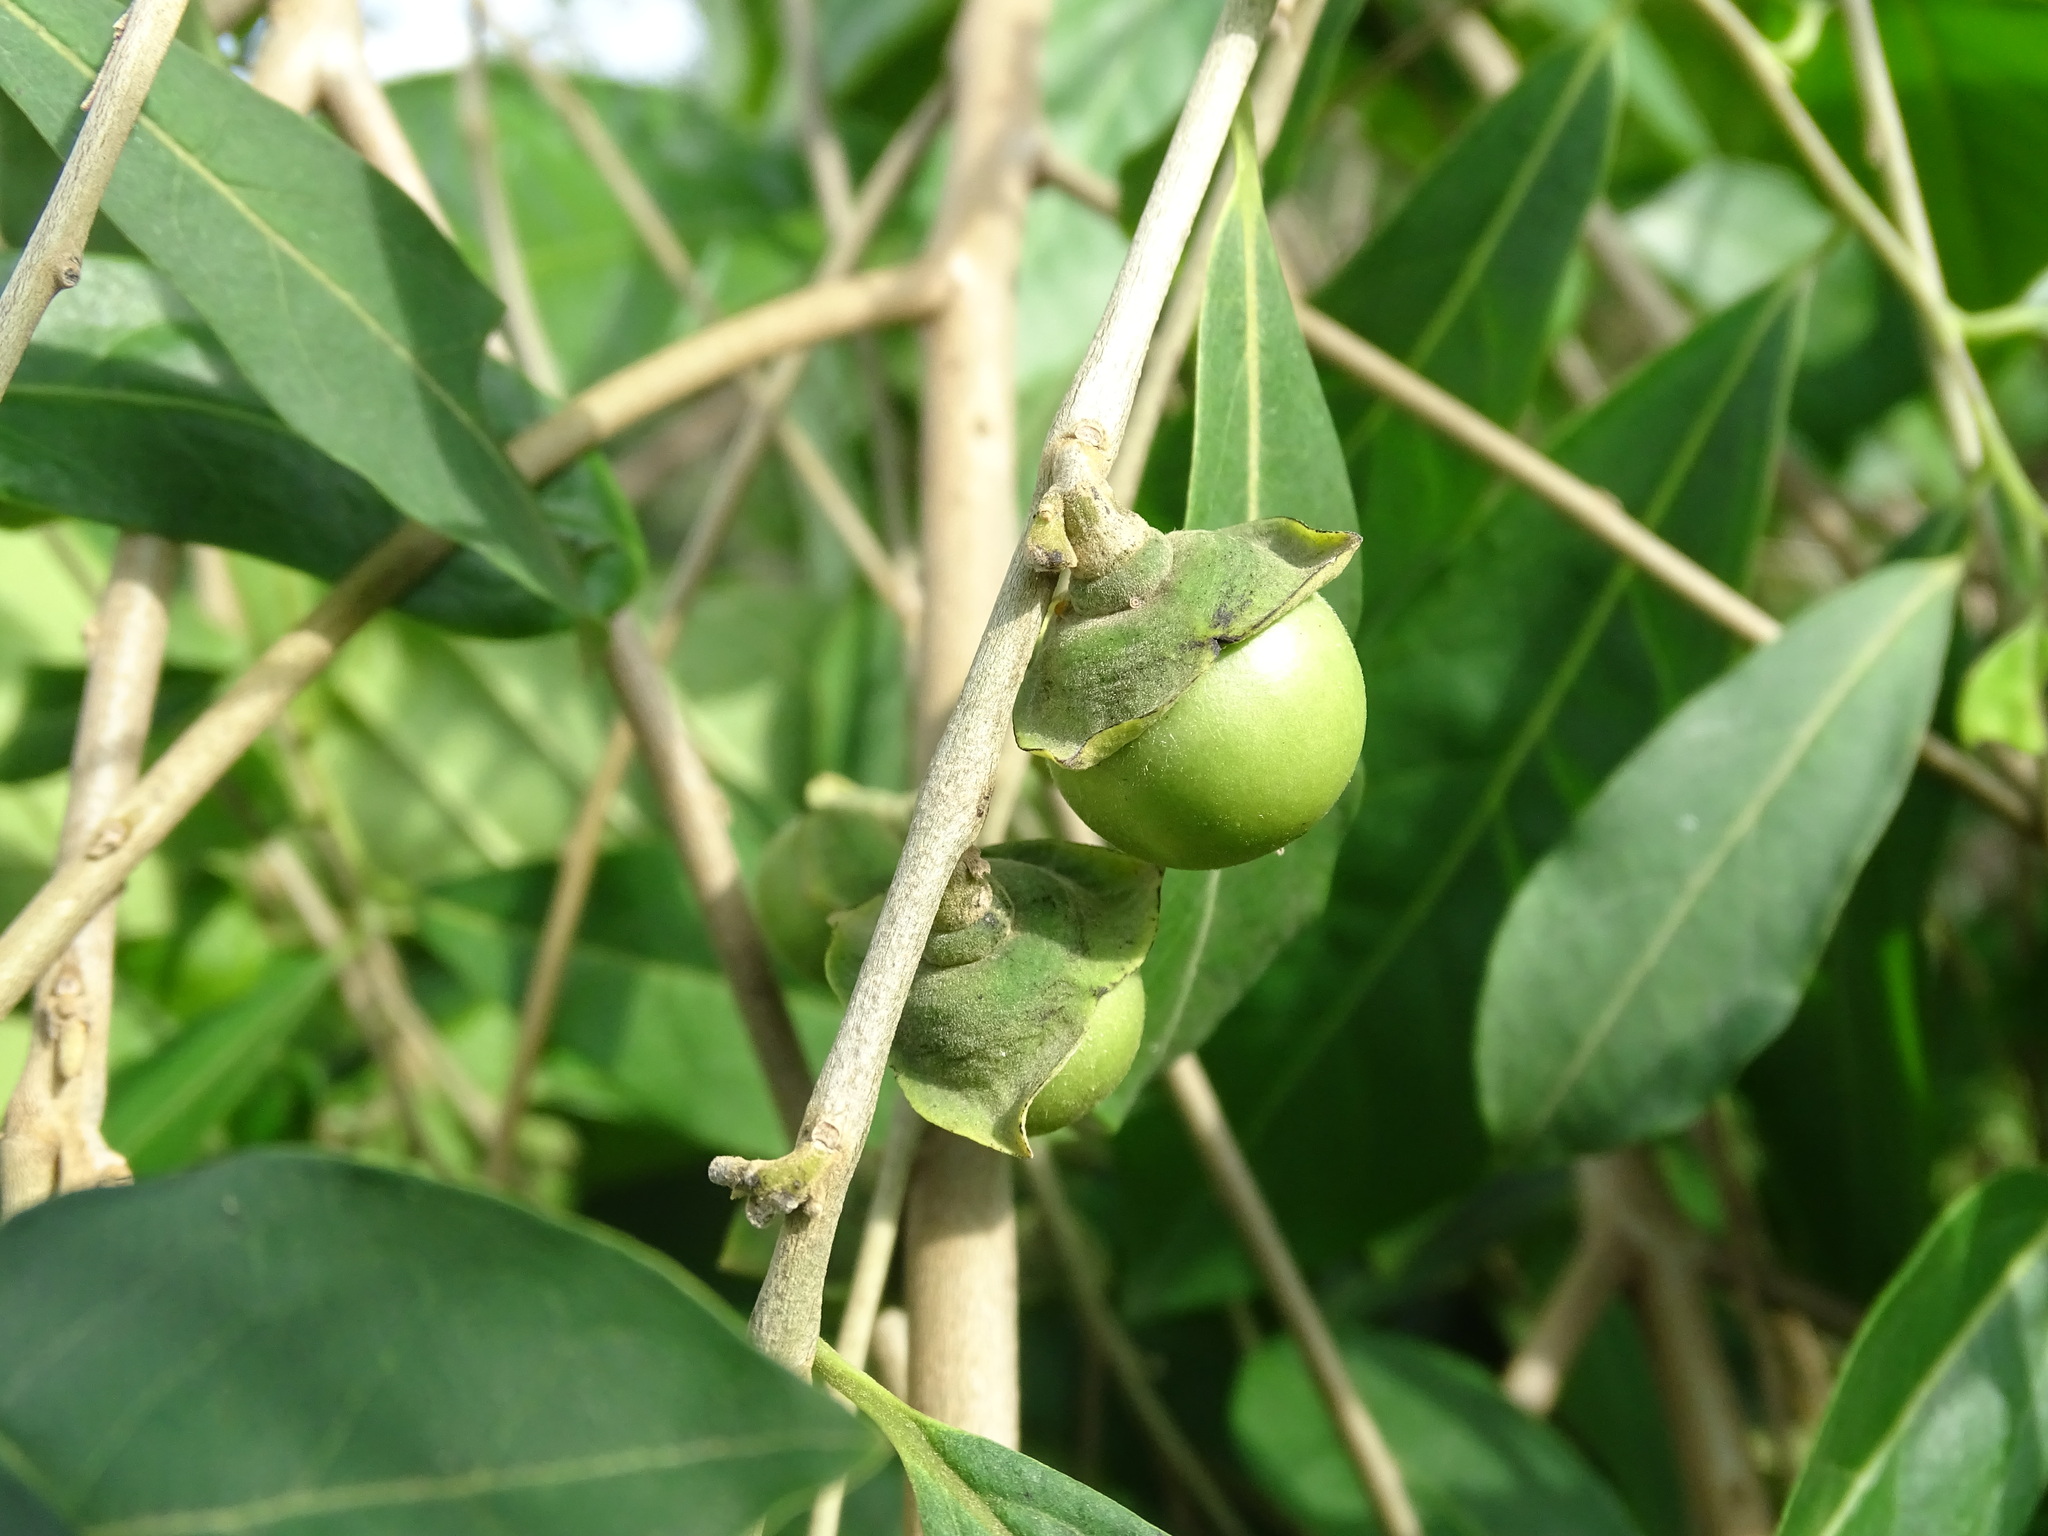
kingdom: Plantae
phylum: Tracheophyta
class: Magnoliopsida
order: Ericales
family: Ebenaceae
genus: Diospyros
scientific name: Diospyros acapulcensis
